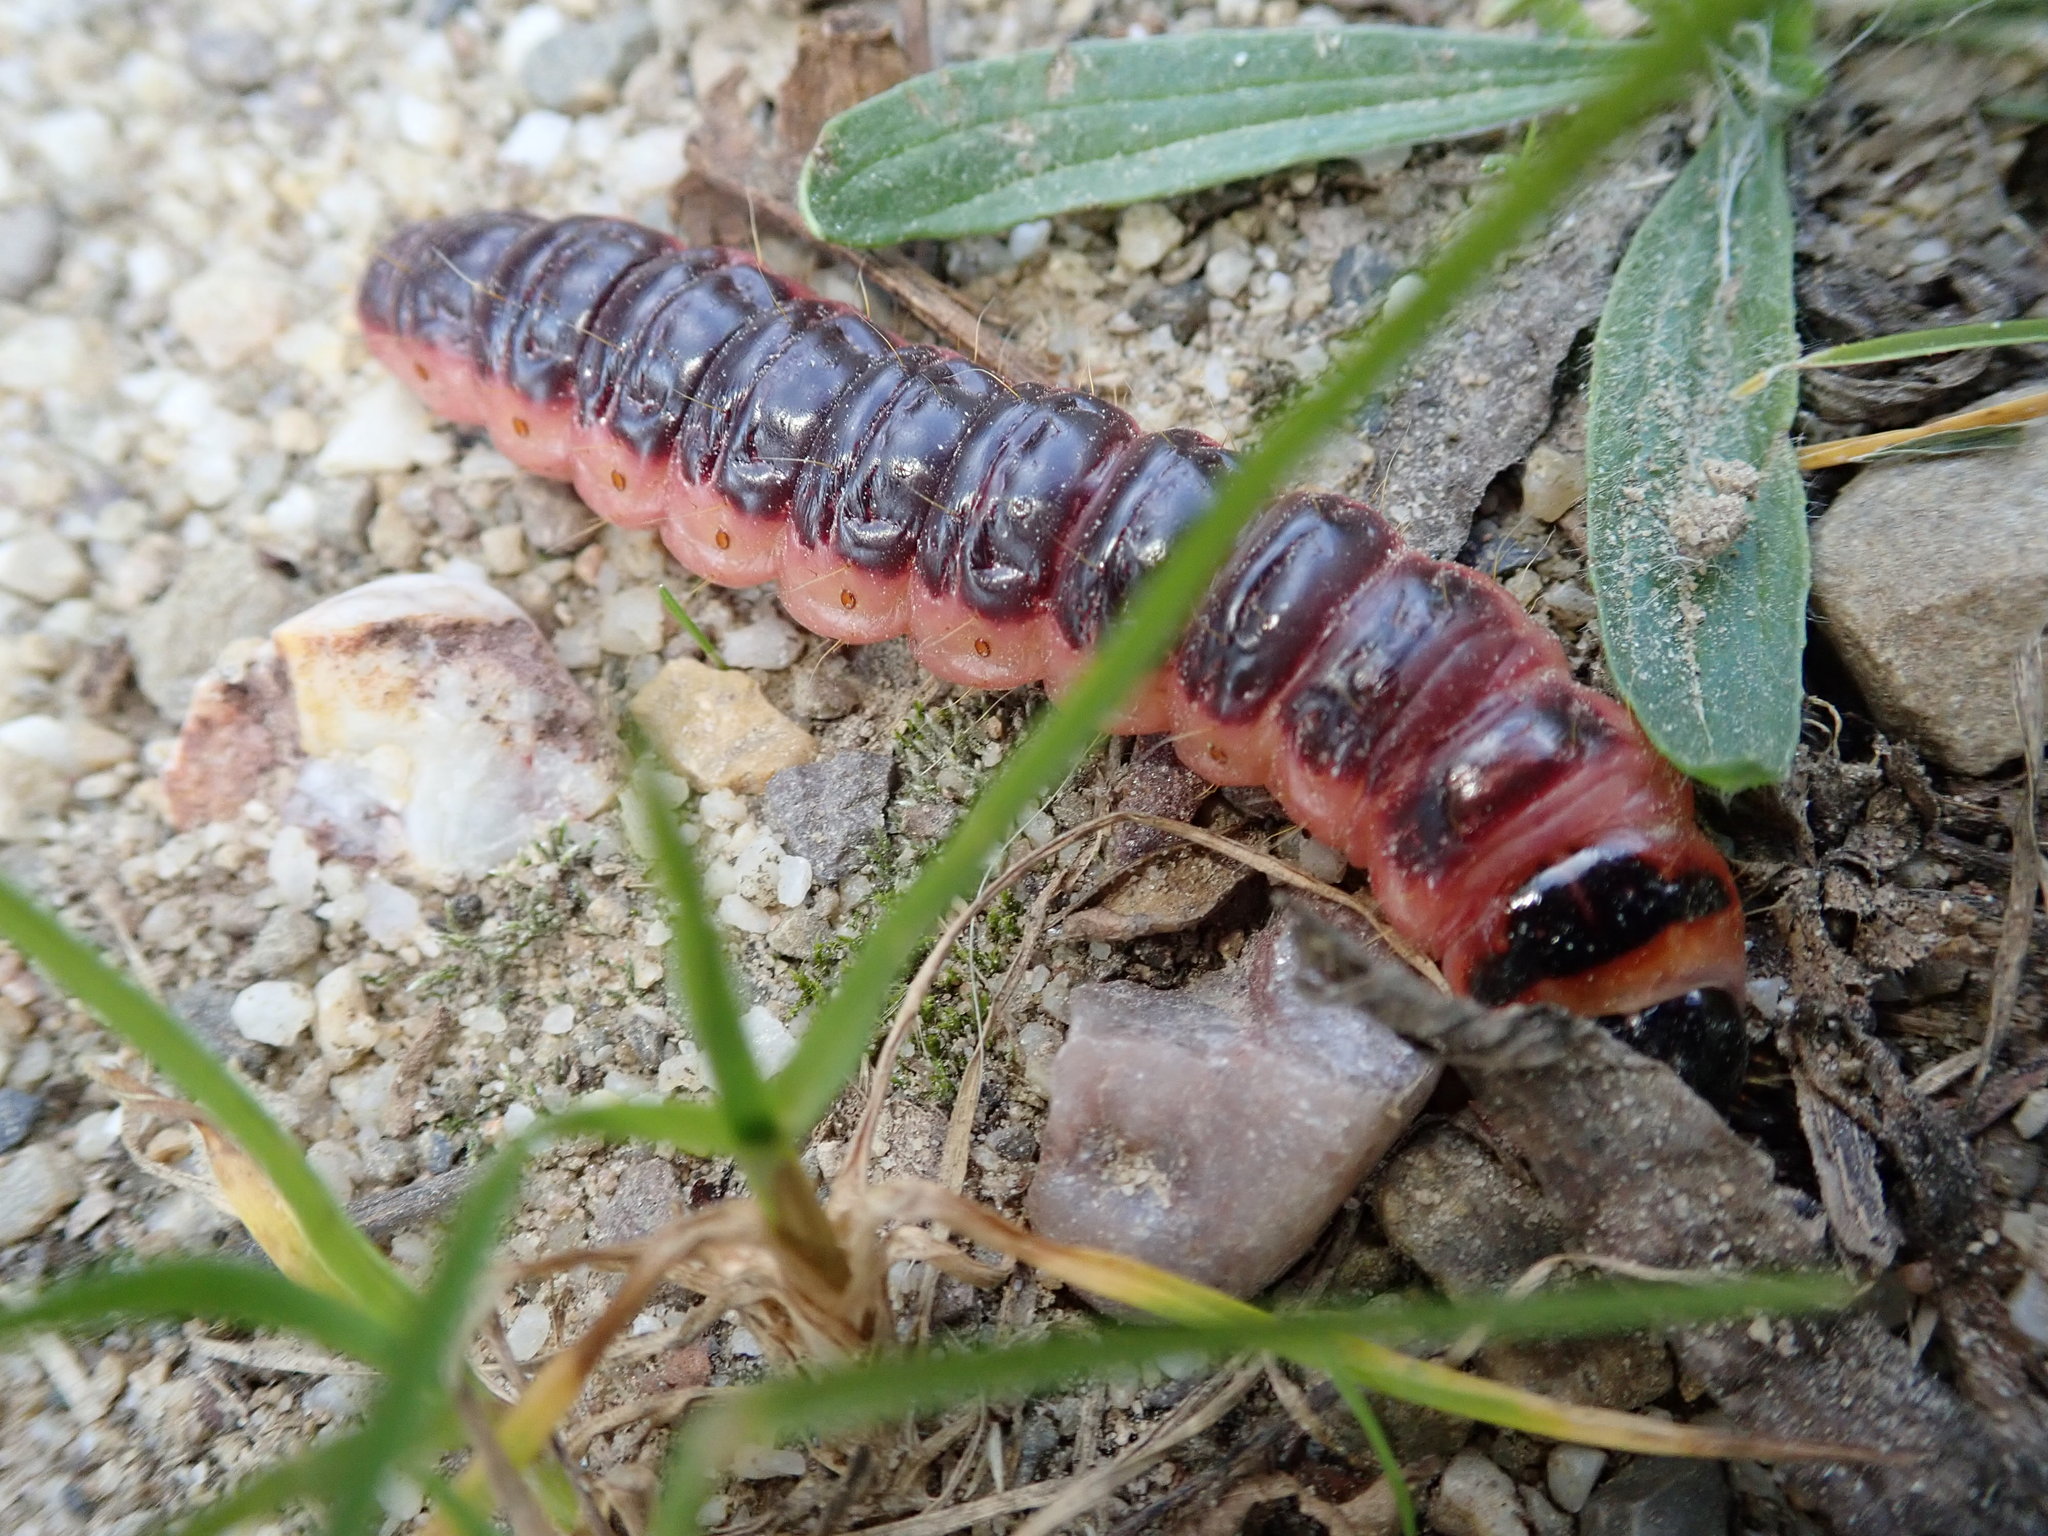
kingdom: Animalia
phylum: Arthropoda
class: Insecta
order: Lepidoptera
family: Cossidae
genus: Cossus
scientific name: Cossus cossus
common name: Goat moth
